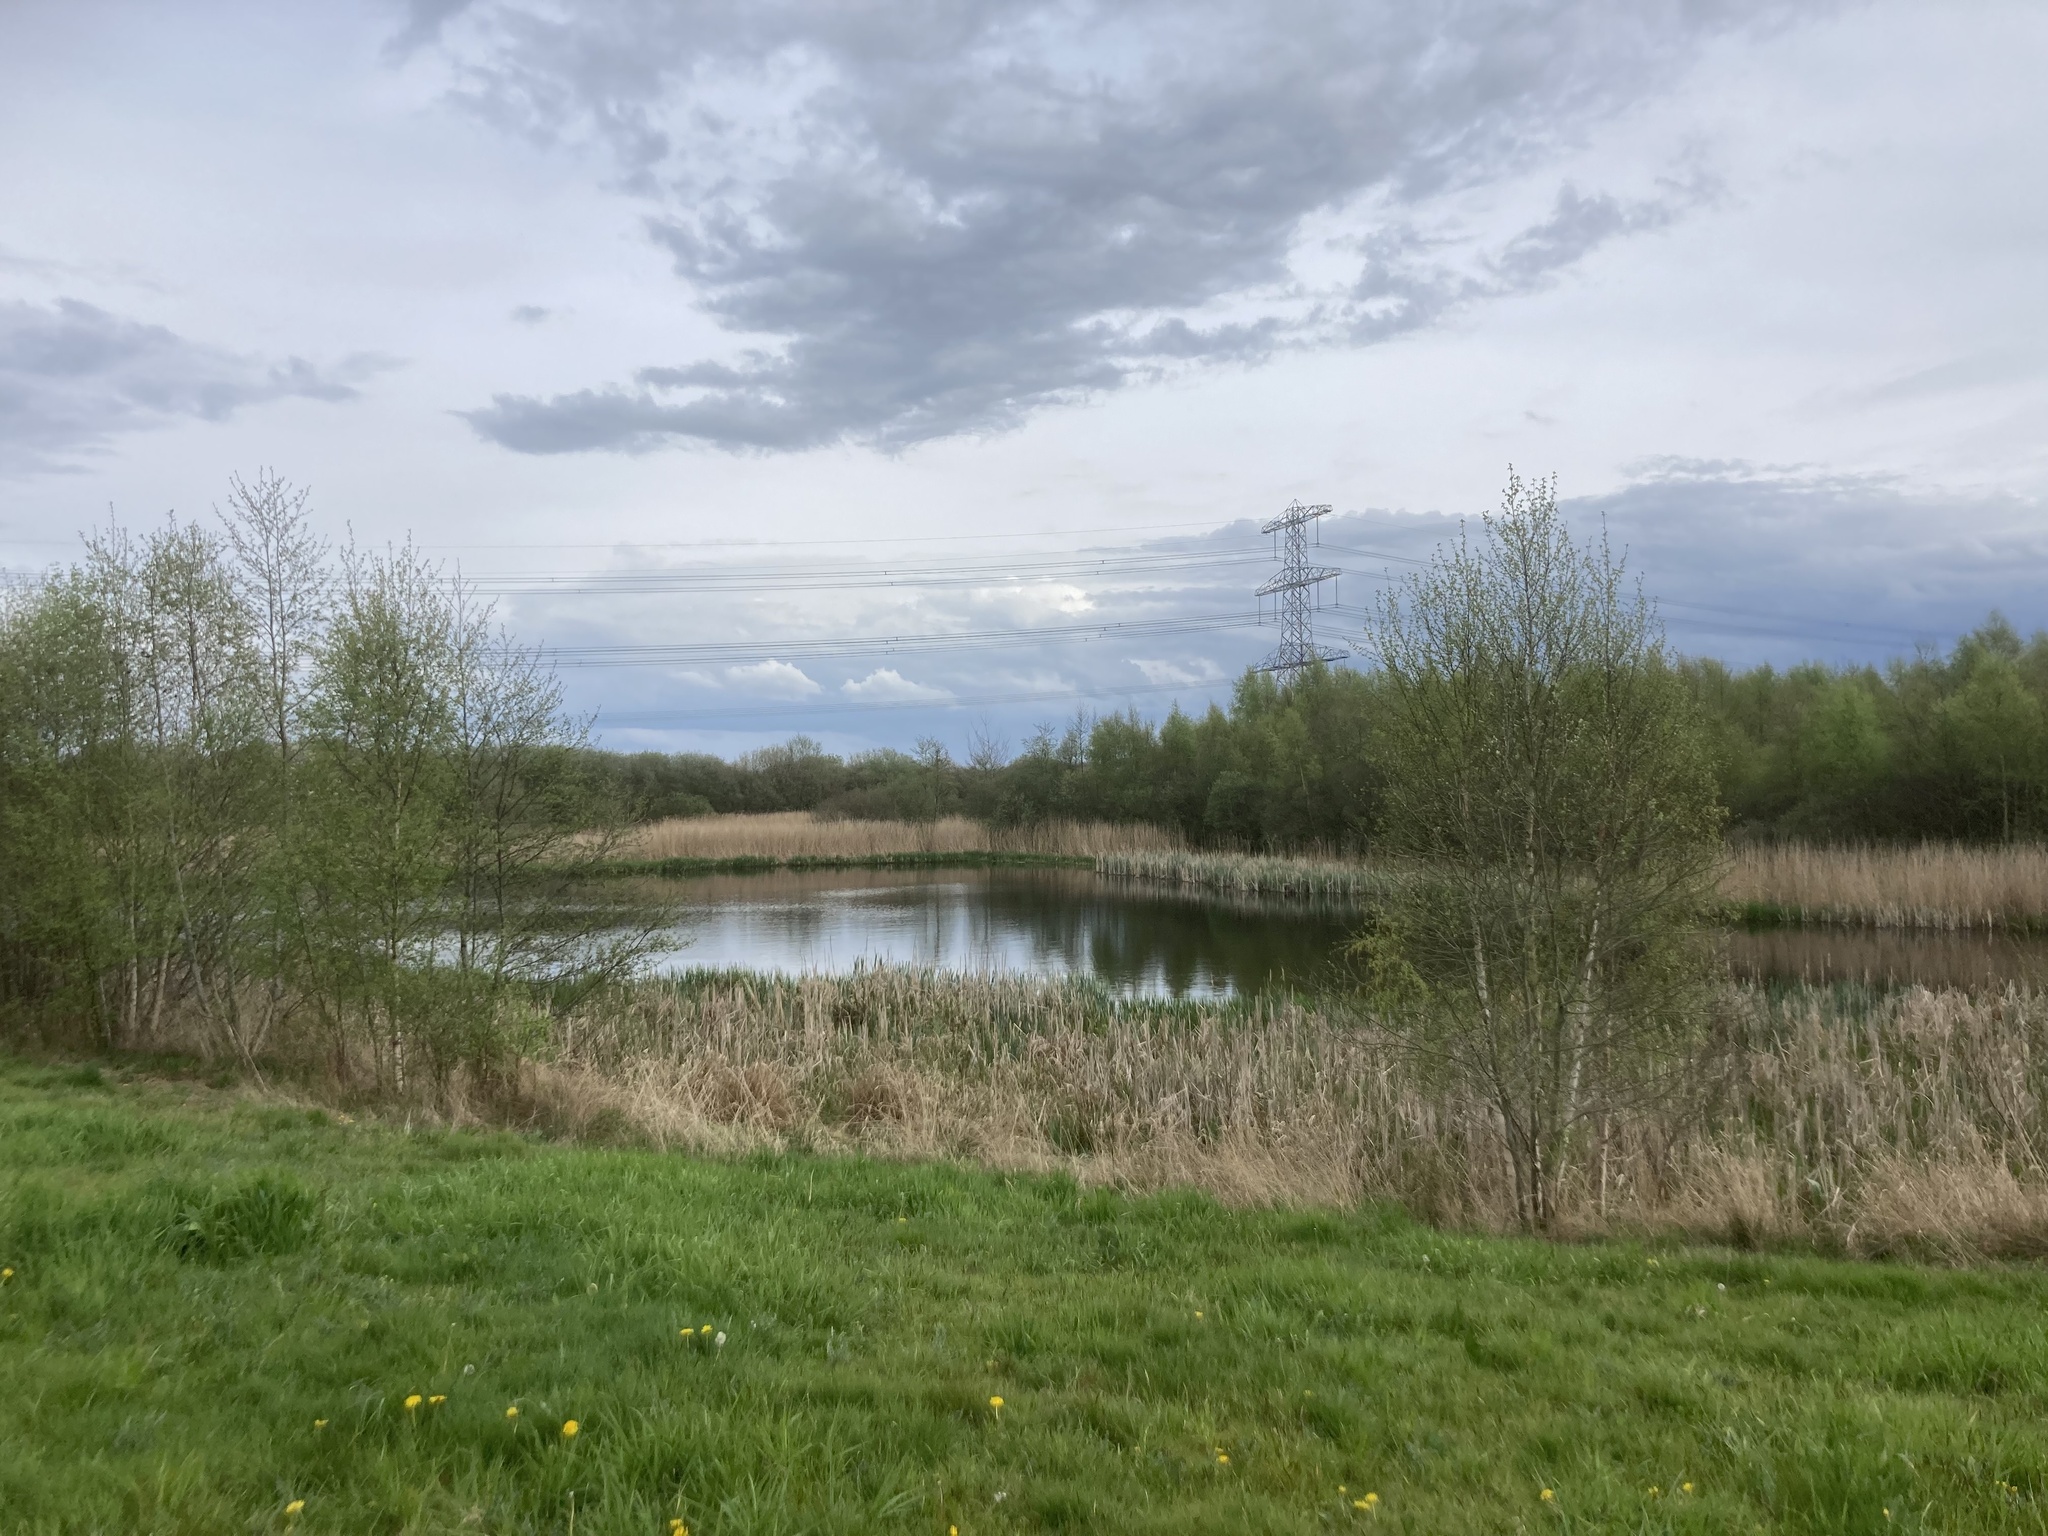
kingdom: Plantae
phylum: Tracheophyta
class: Liliopsida
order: Poales
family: Poaceae
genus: Phragmites
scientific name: Phragmites australis
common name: Common reed
